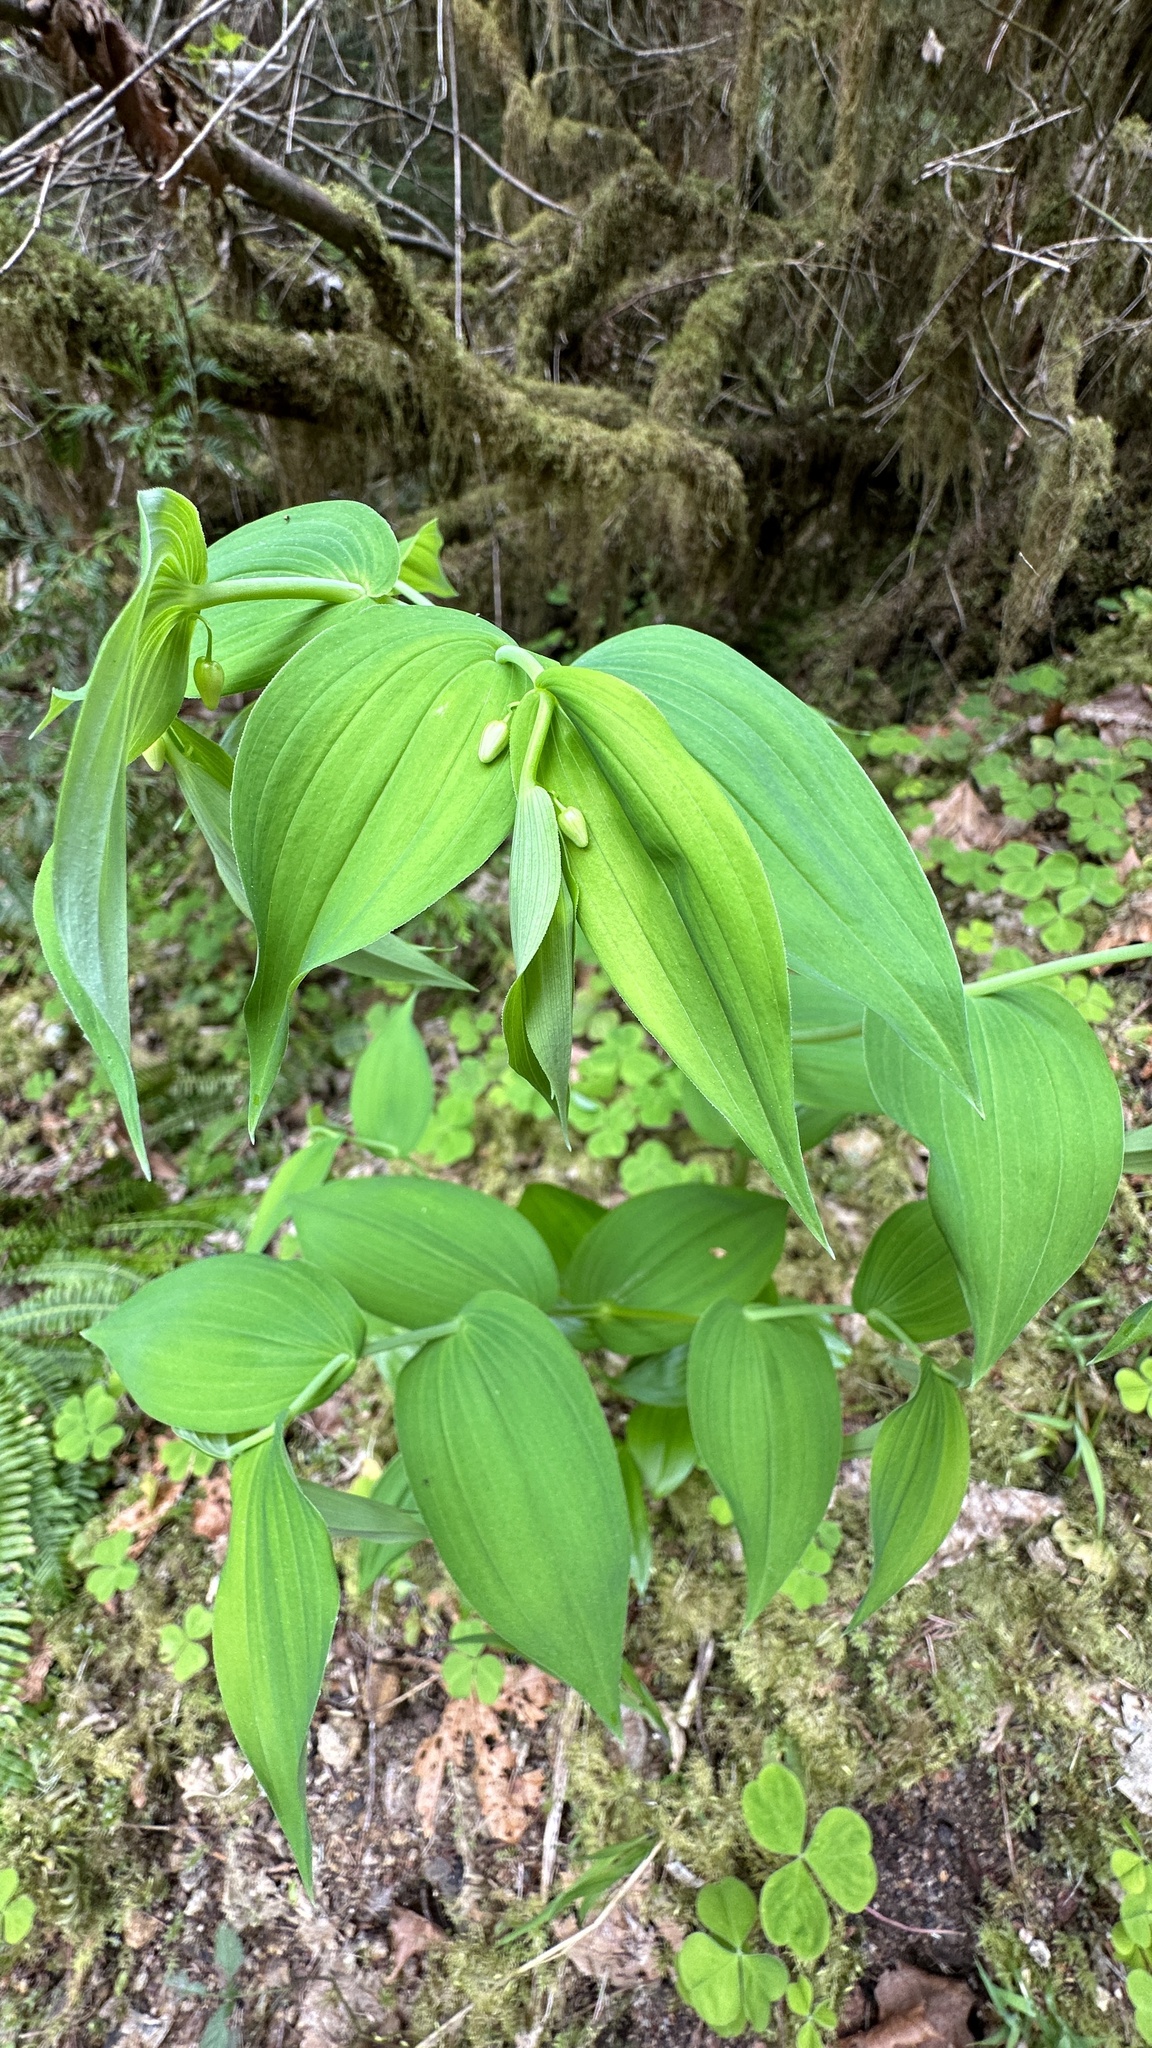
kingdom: Plantae
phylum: Tracheophyta
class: Liliopsida
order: Liliales
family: Liliaceae
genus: Streptopus
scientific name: Streptopus amplexifolius
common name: Clasp twisted stalk
